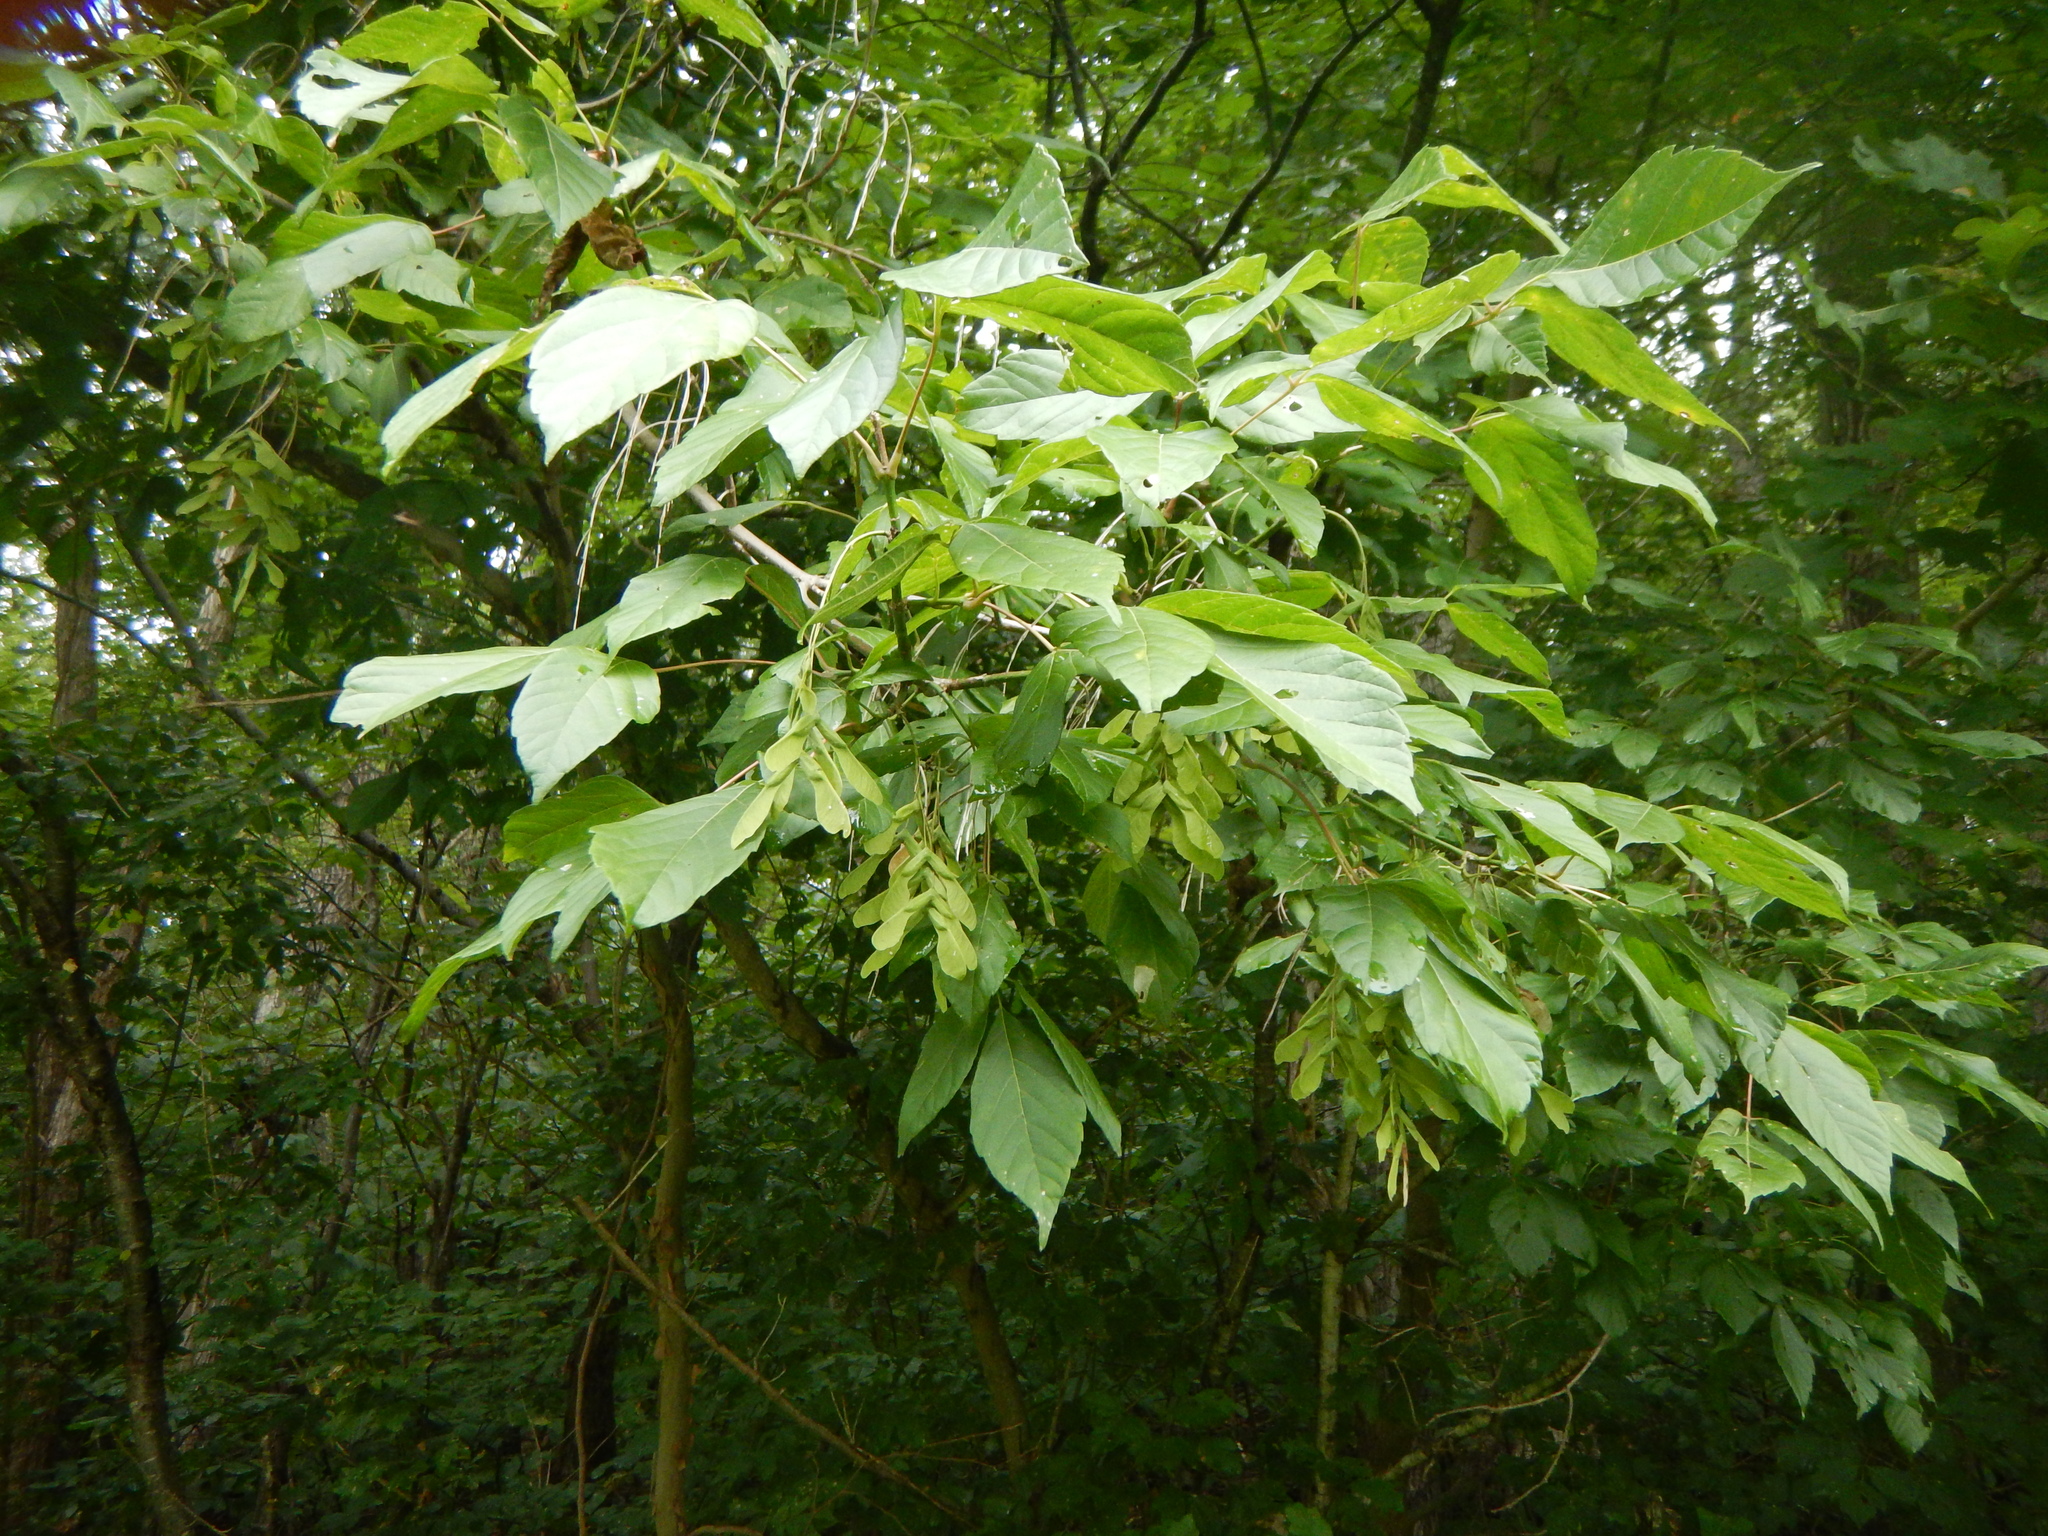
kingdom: Plantae
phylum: Tracheophyta
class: Magnoliopsida
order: Sapindales
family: Sapindaceae
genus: Acer
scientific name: Acer negundo
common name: Ashleaf maple
